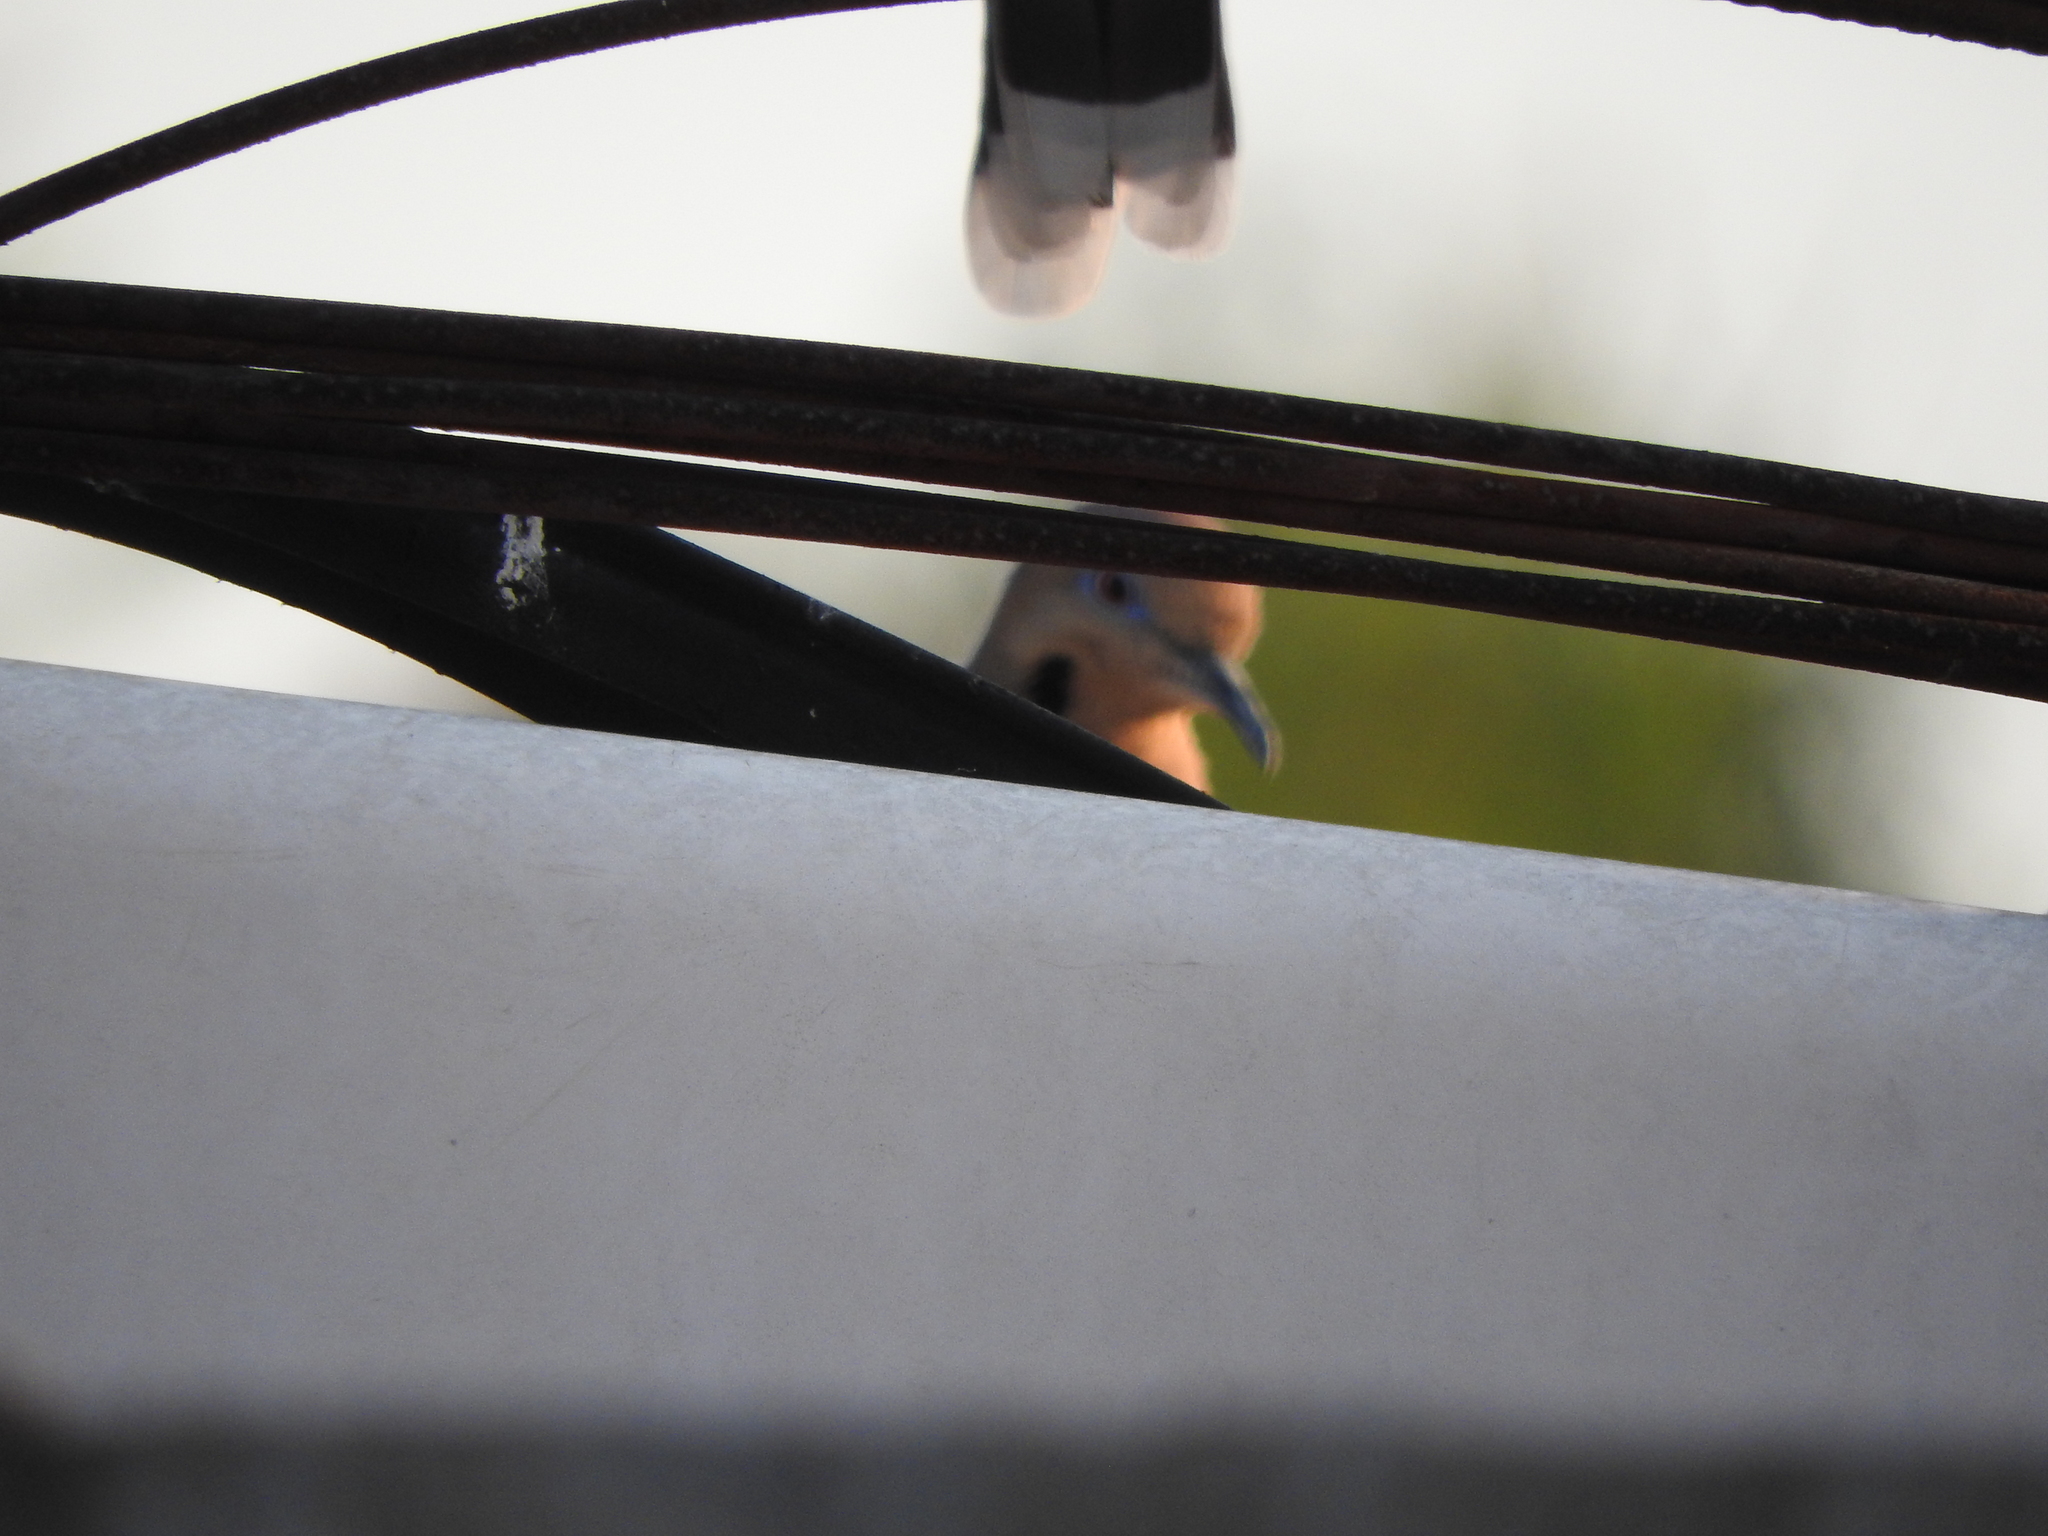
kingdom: Animalia
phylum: Chordata
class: Aves
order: Columbiformes
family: Columbidae
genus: Zenaida
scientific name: Zenaida asiatica
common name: White-winged dove
